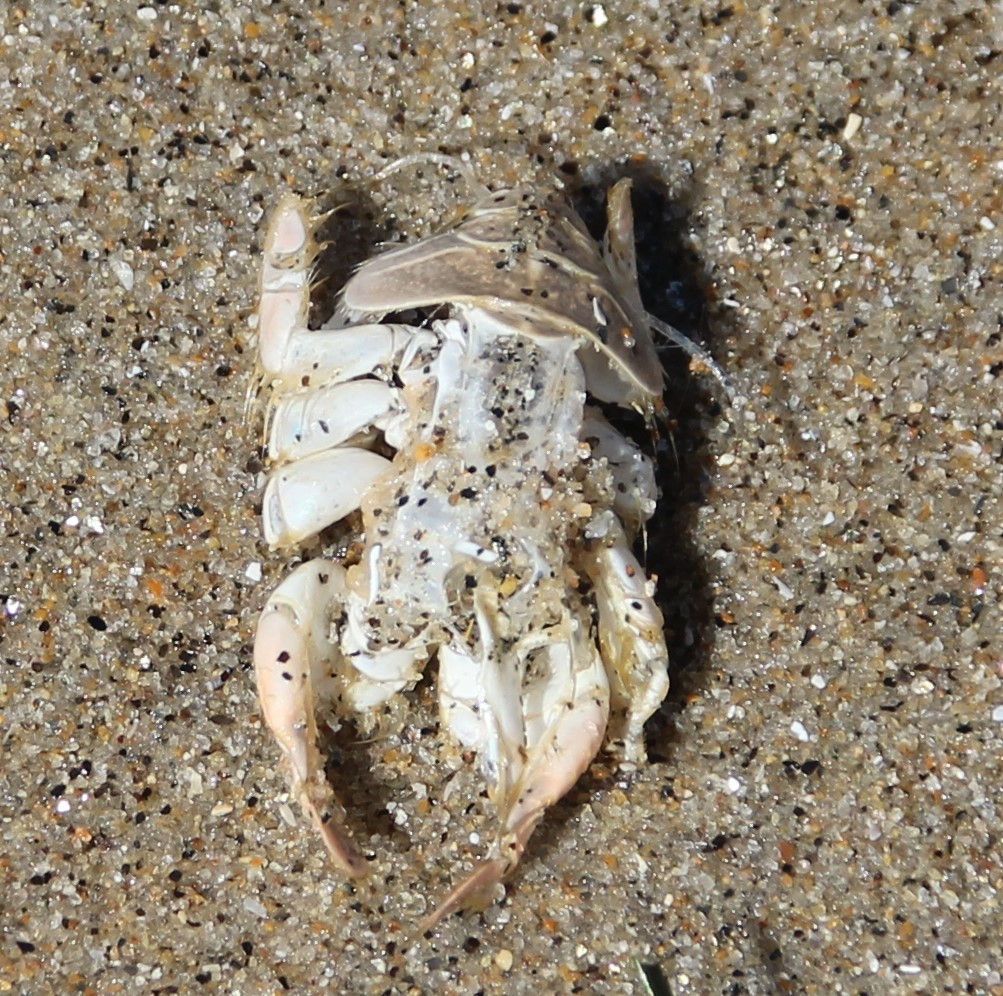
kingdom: Animalia
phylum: Arthropoda
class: Malacostraca
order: Decapoda
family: Hippidae
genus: Emerita
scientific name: Emerita analoga
